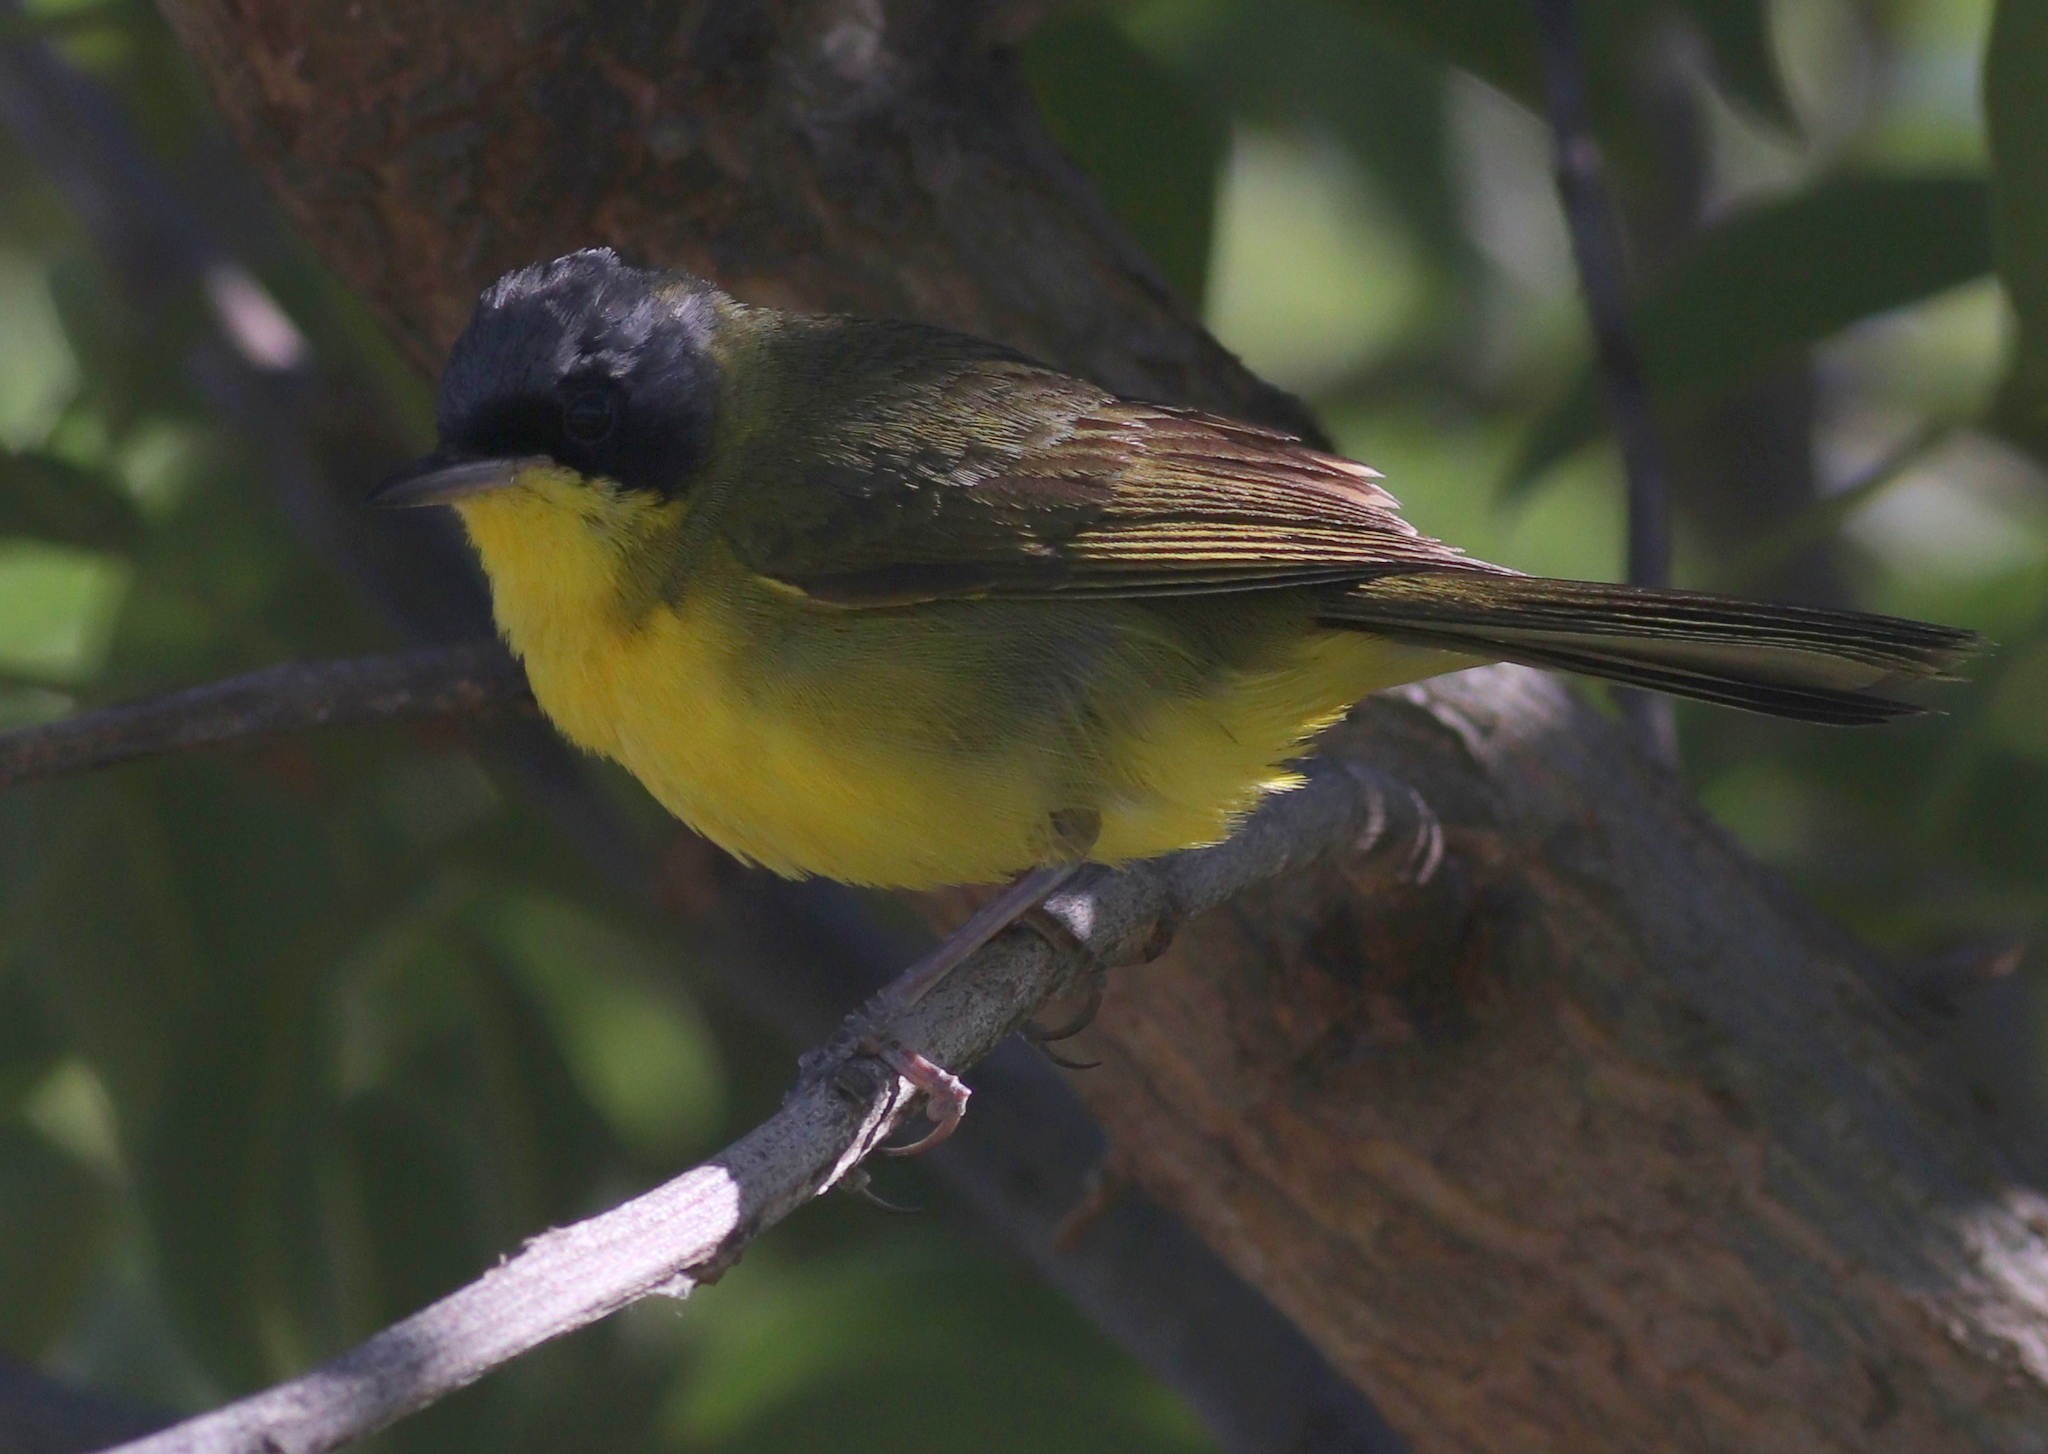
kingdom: Animalia
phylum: Chordata
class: Aves
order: Passeriformes
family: Parulidae
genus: Geothlypis
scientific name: Geothlypis velata
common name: Southern yellowthroat
